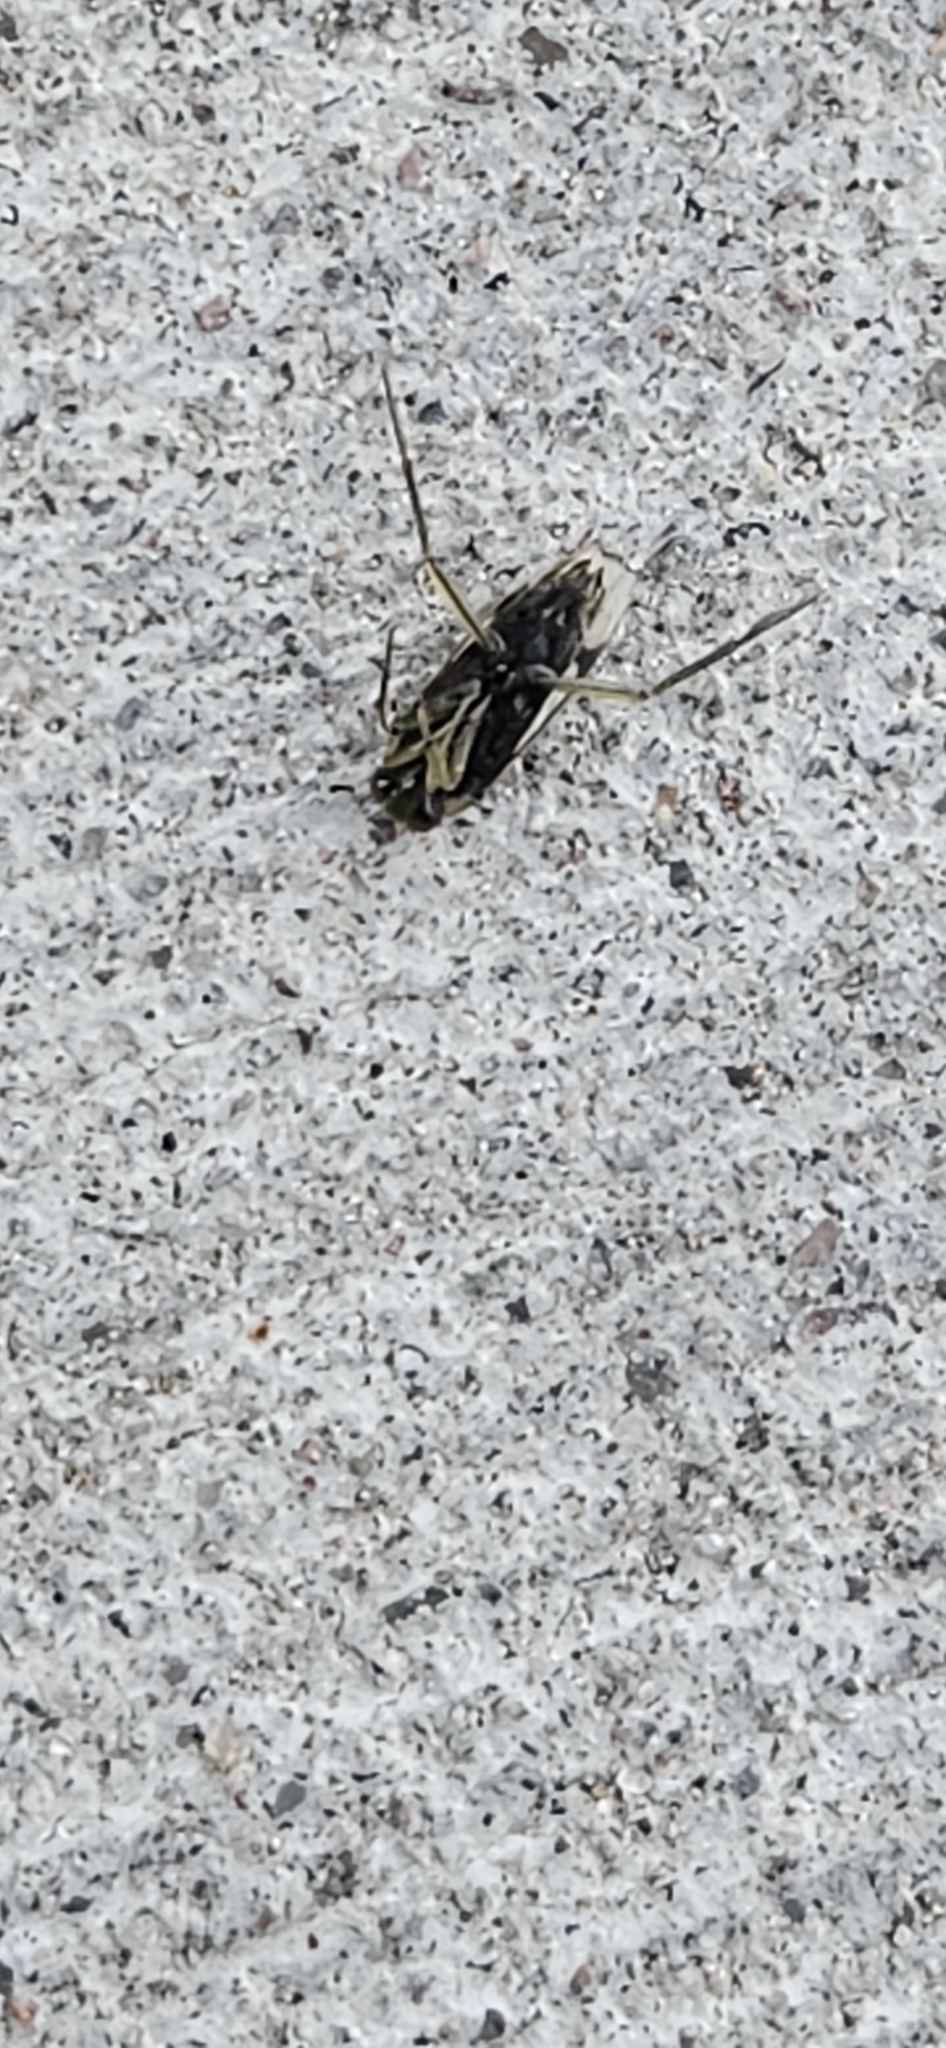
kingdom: Animalia
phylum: Arthropoda
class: Insecta
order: Hemiptera
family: Notonectidae
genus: Notonecta
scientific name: Notonecta undulata
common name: Grousewinged backswimmer
